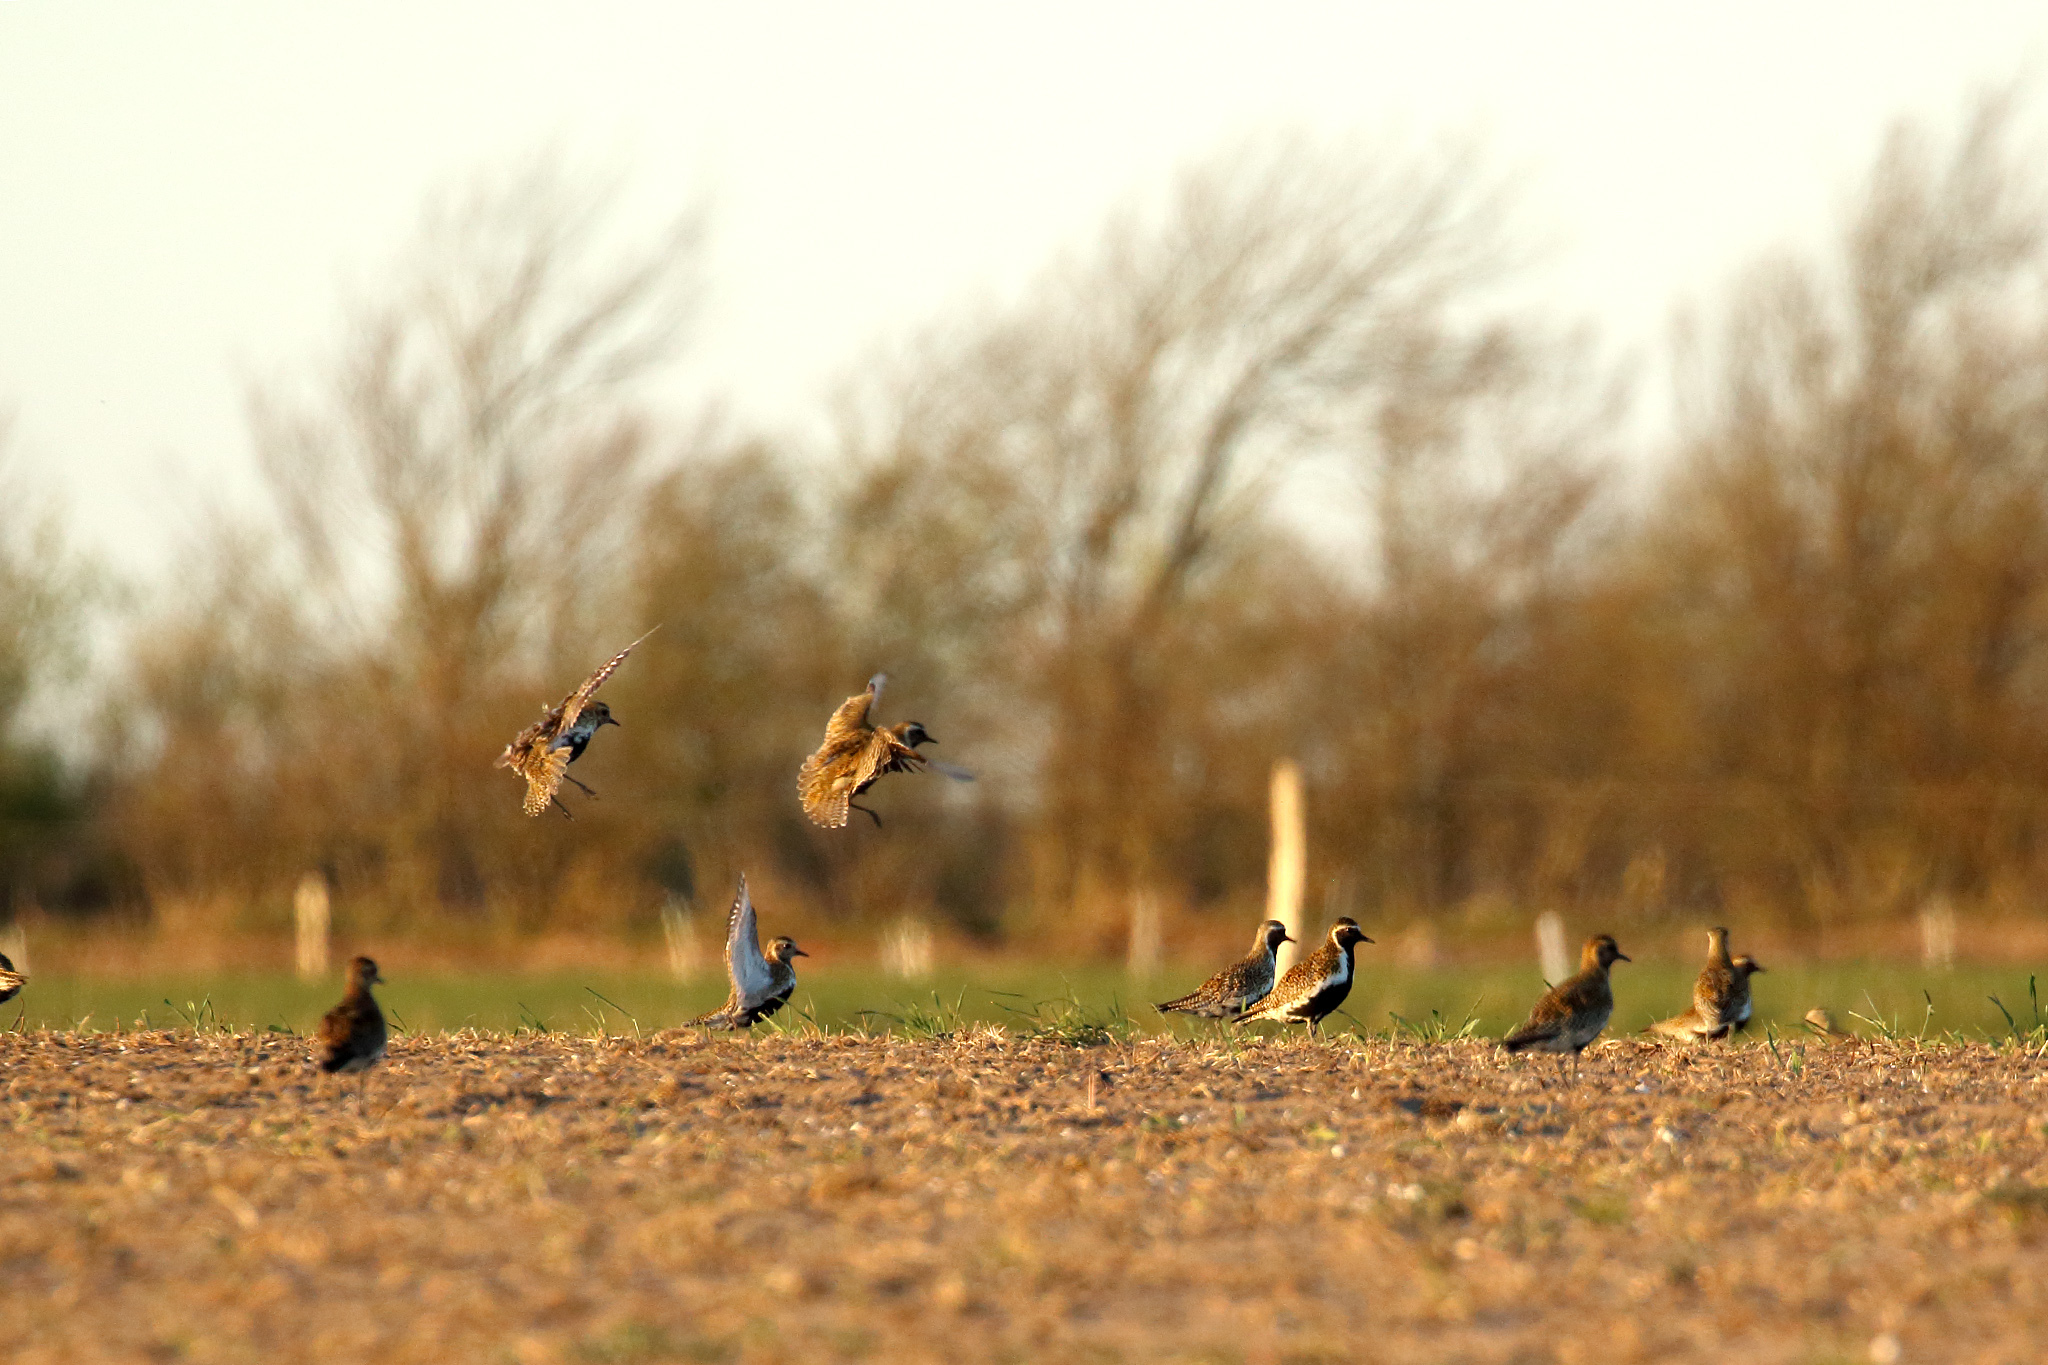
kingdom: Animalia
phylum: Chordata
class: Aves
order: Charadriiformes
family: Charadriidae
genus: Pluvialis
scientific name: Pluvialis apricaria
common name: European golden plover
